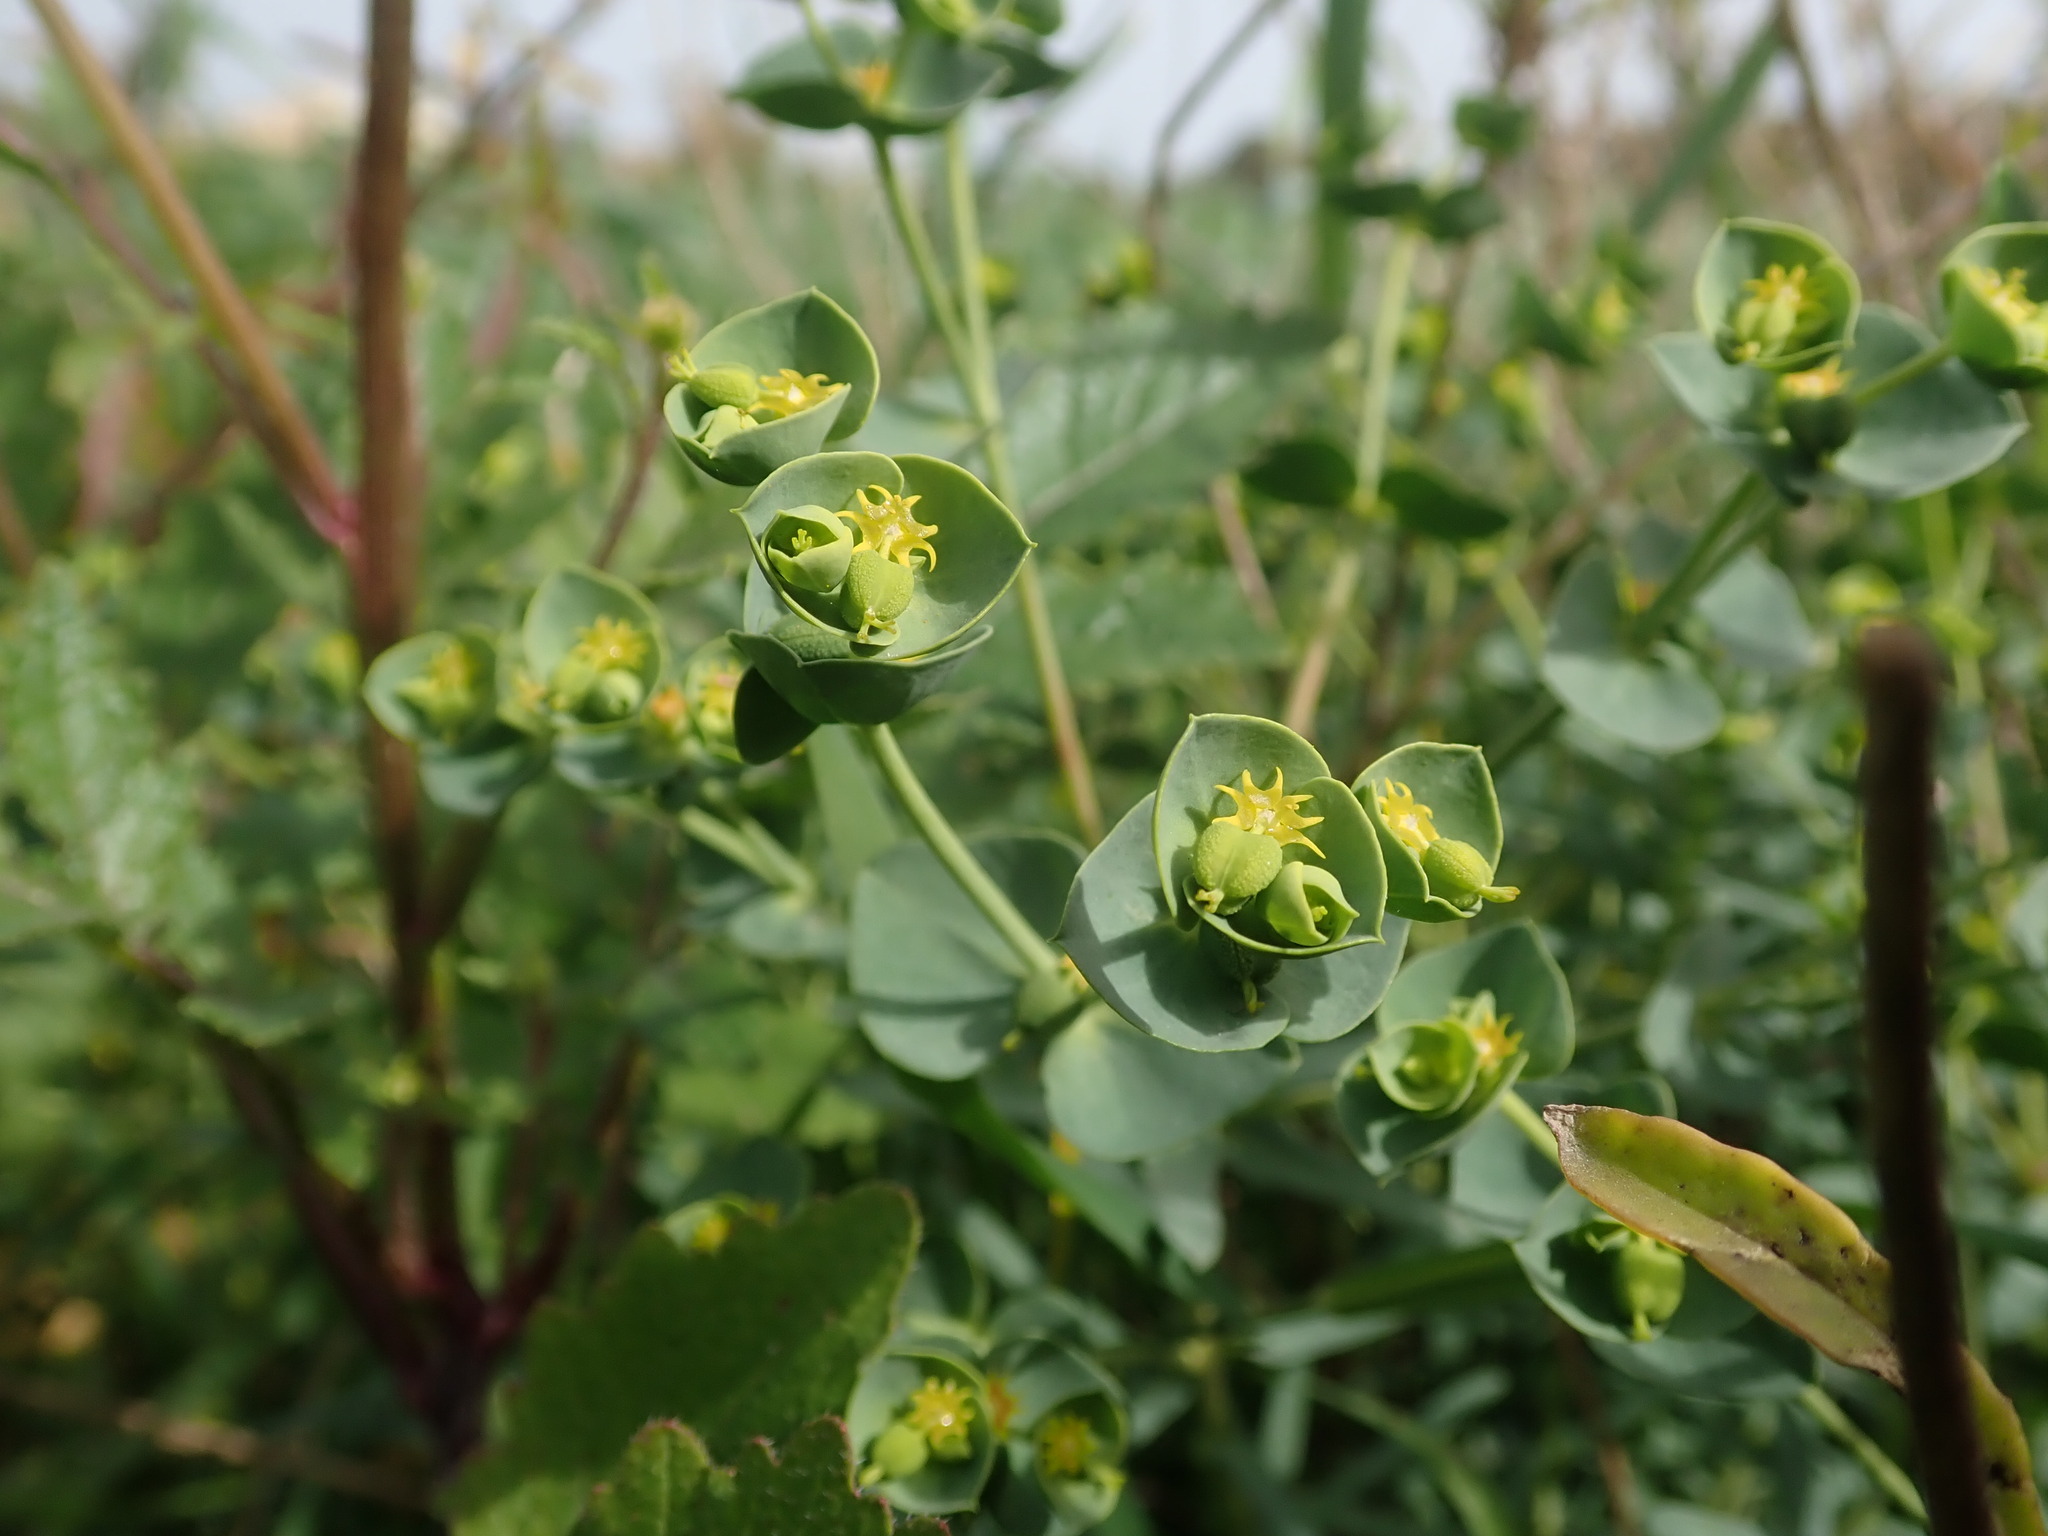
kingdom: Plantae
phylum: Tracheophyta
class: Magnoliopsida
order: Malpighiales
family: Euphorbiaceae
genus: Euphorbia
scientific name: Euphorbia segetalis
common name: Corn spurge
